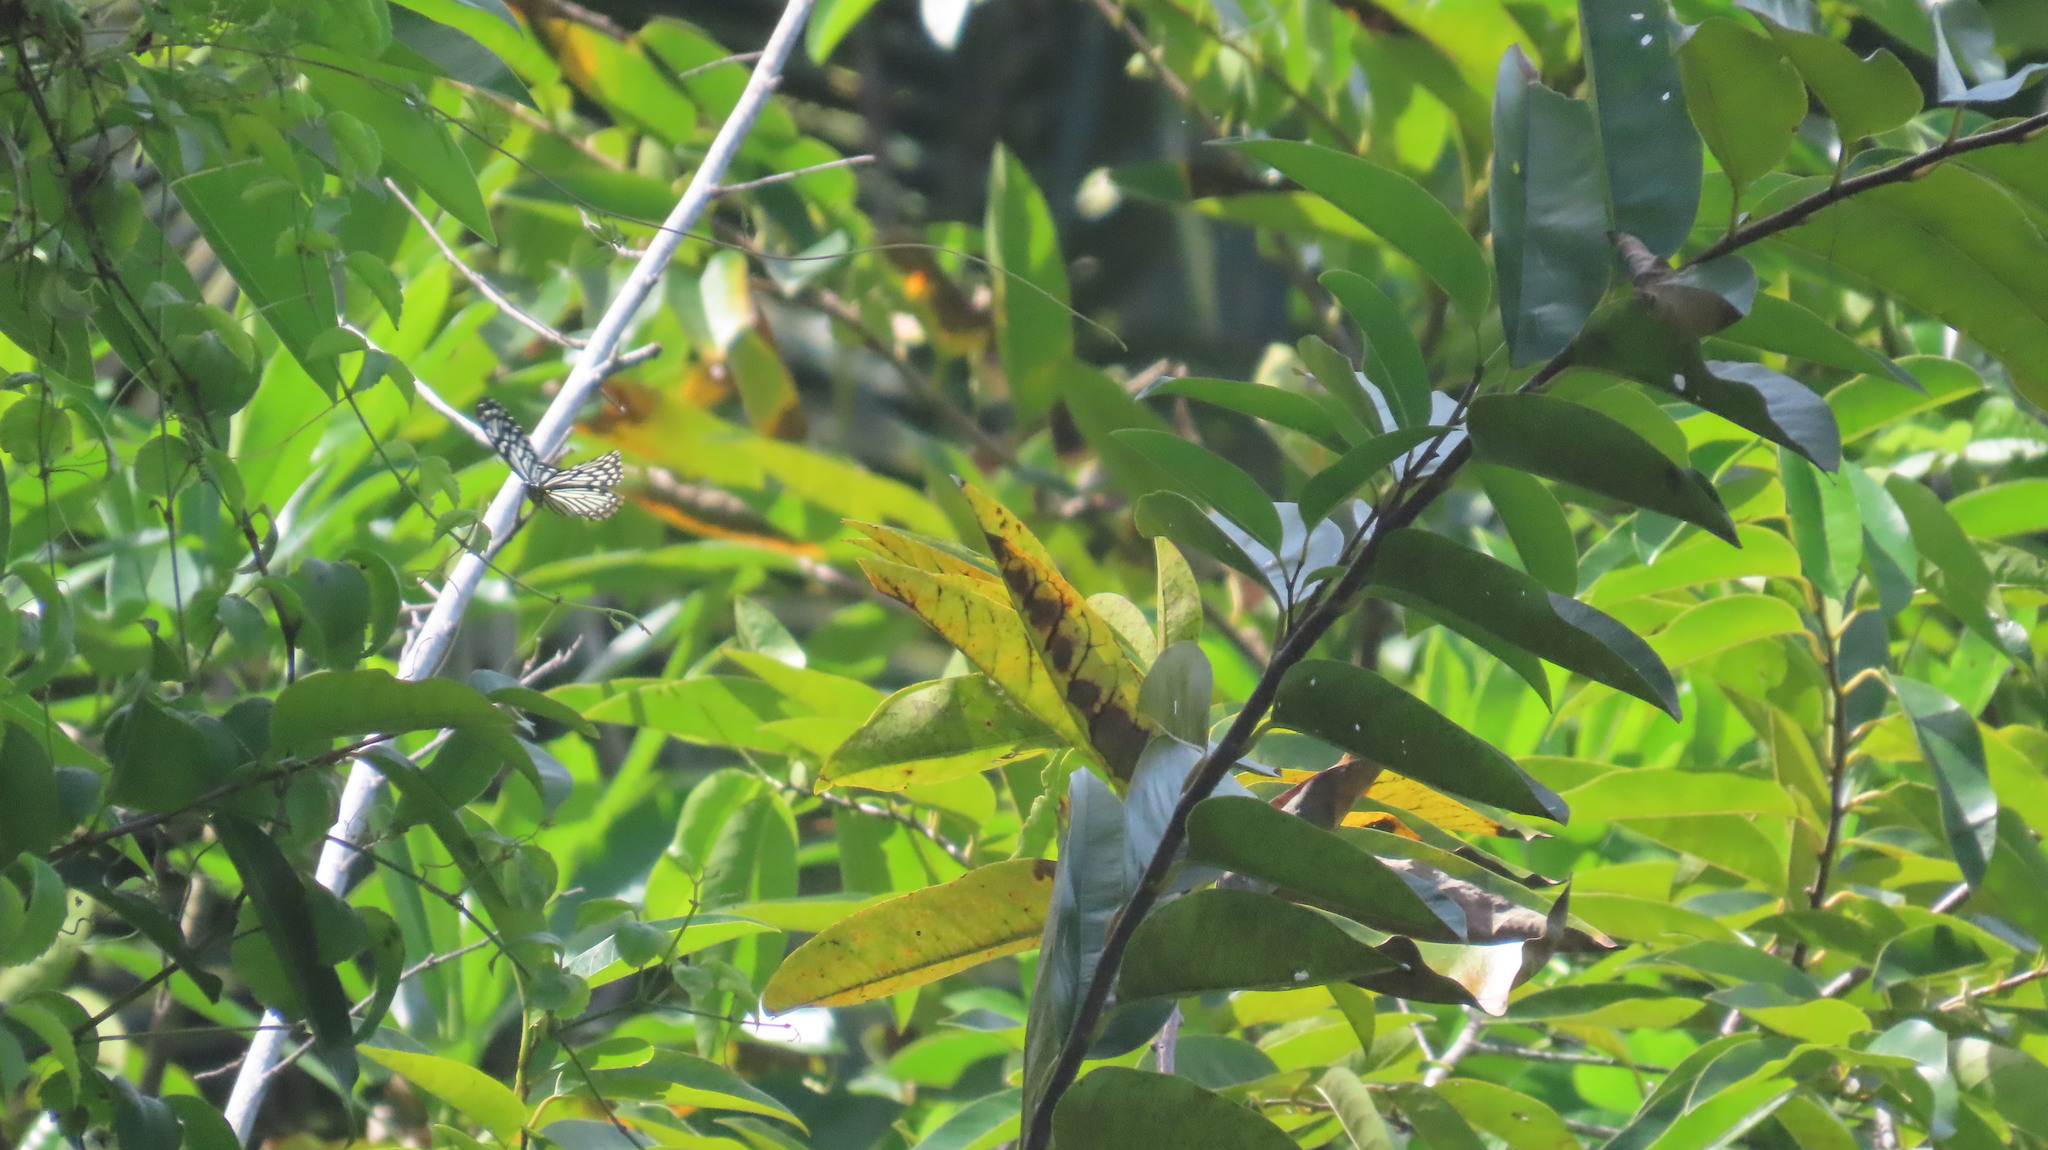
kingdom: Animalia
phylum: Arthropoda
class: Insecta
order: Lepidoptera
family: Papilionidae
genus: Chilasa
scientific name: Chilasa clytia
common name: Common mime
